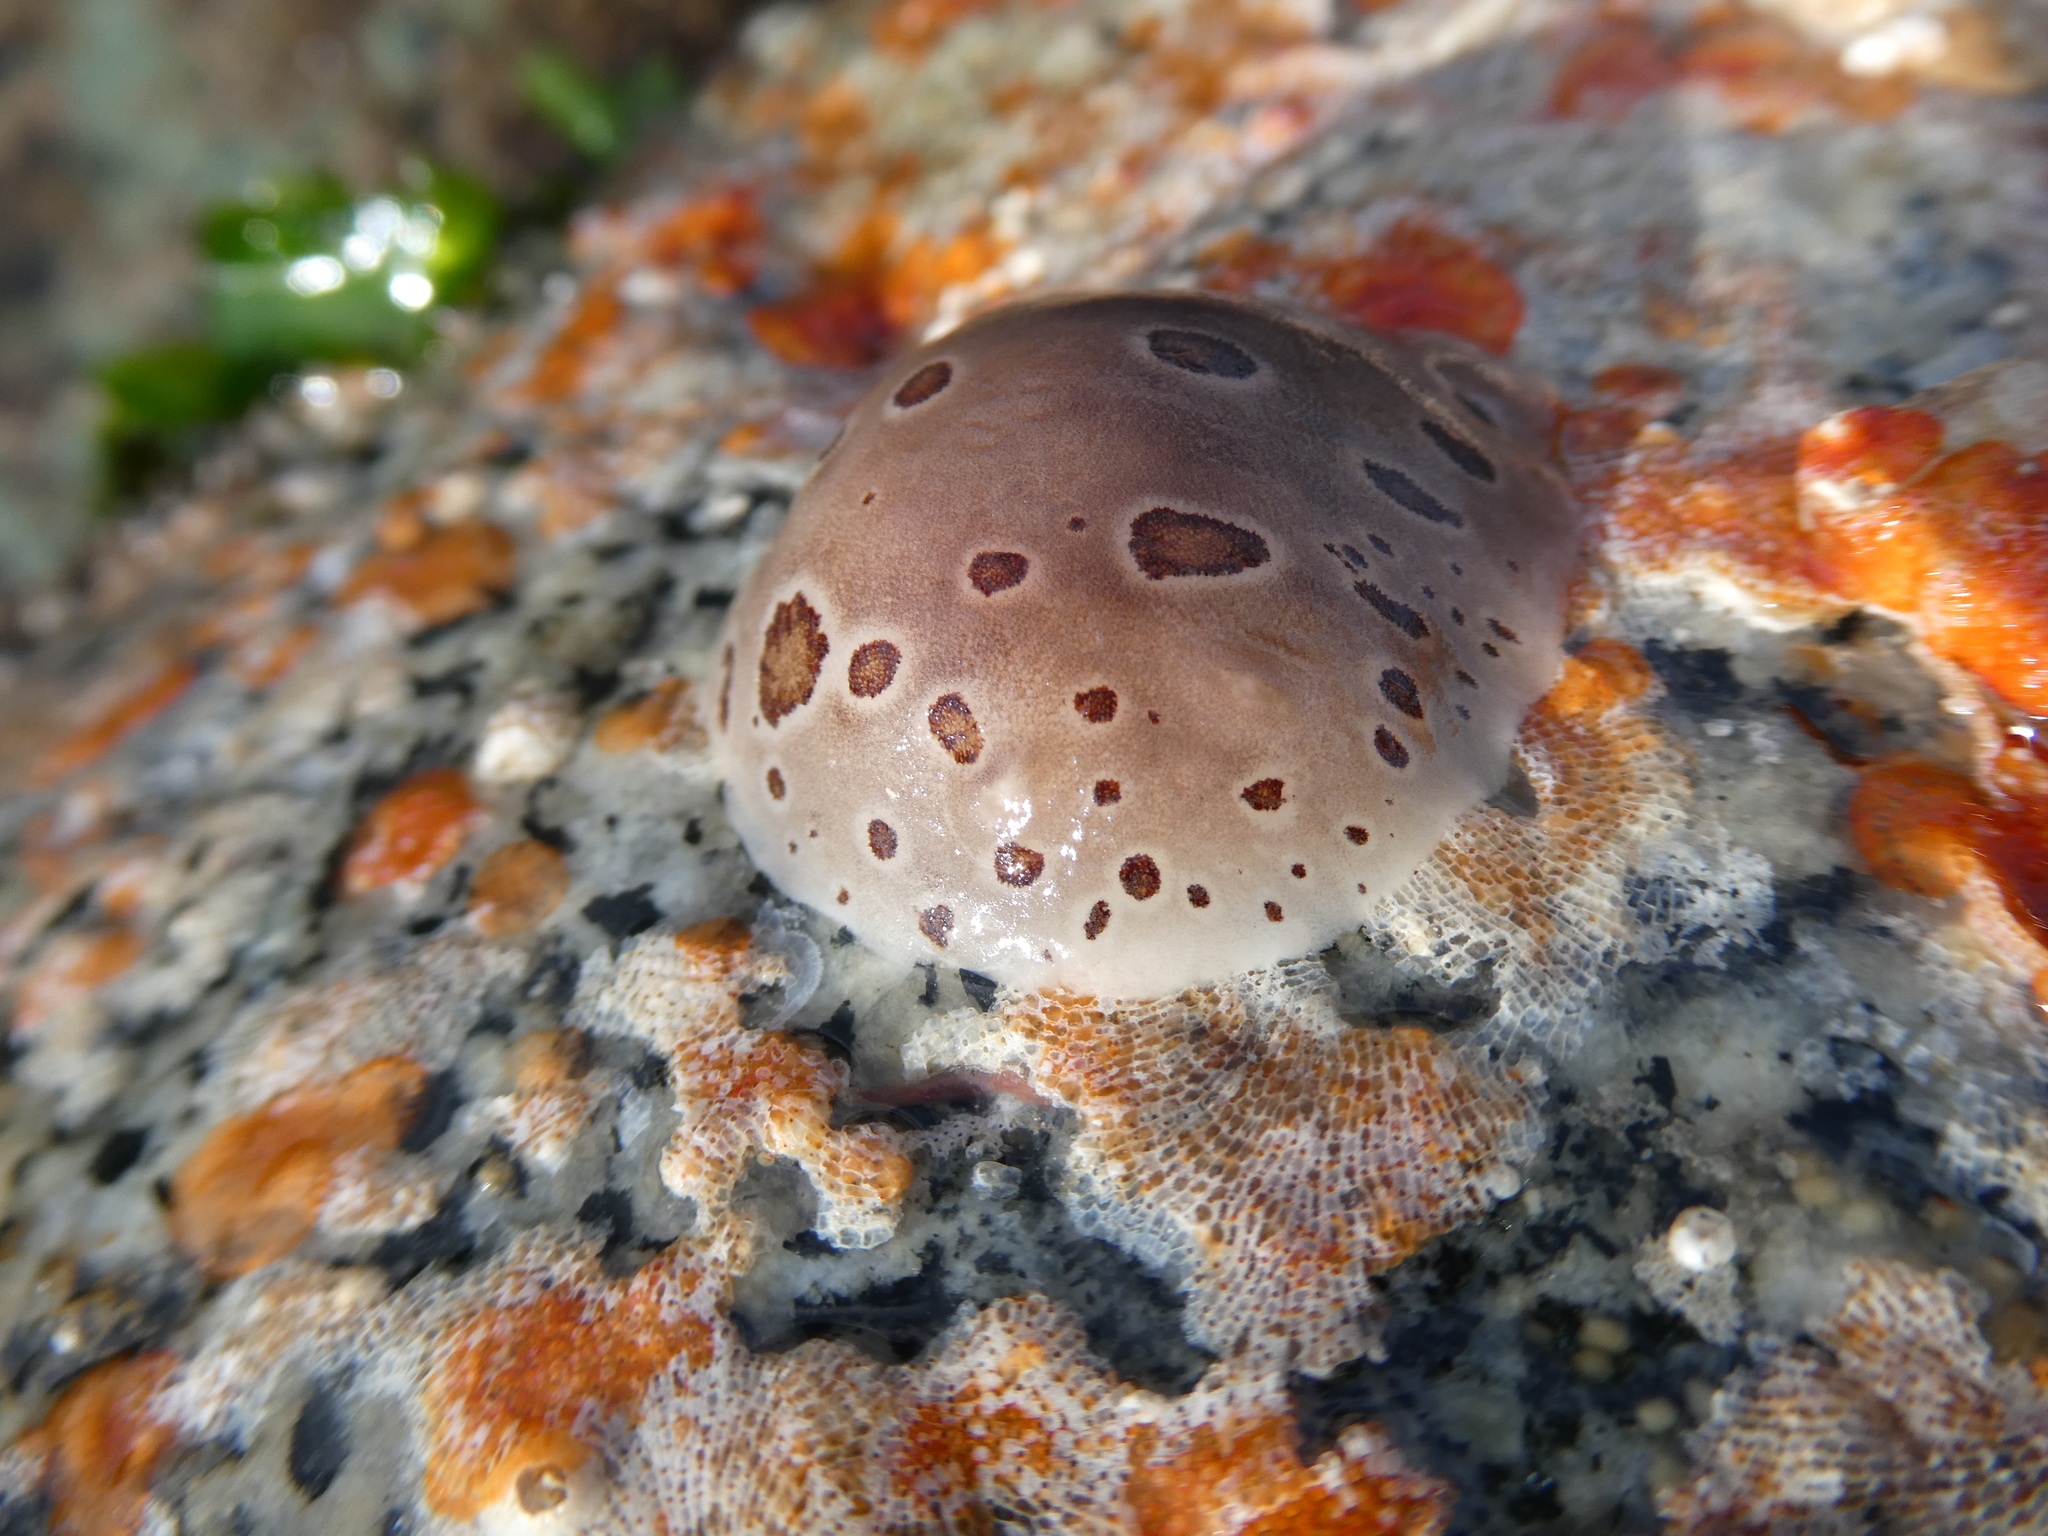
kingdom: Animalia
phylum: Mollusca
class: Gastropoda
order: Nudibranchia
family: Discodorididae
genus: Diaulula
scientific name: Diaulula odonoghuei
